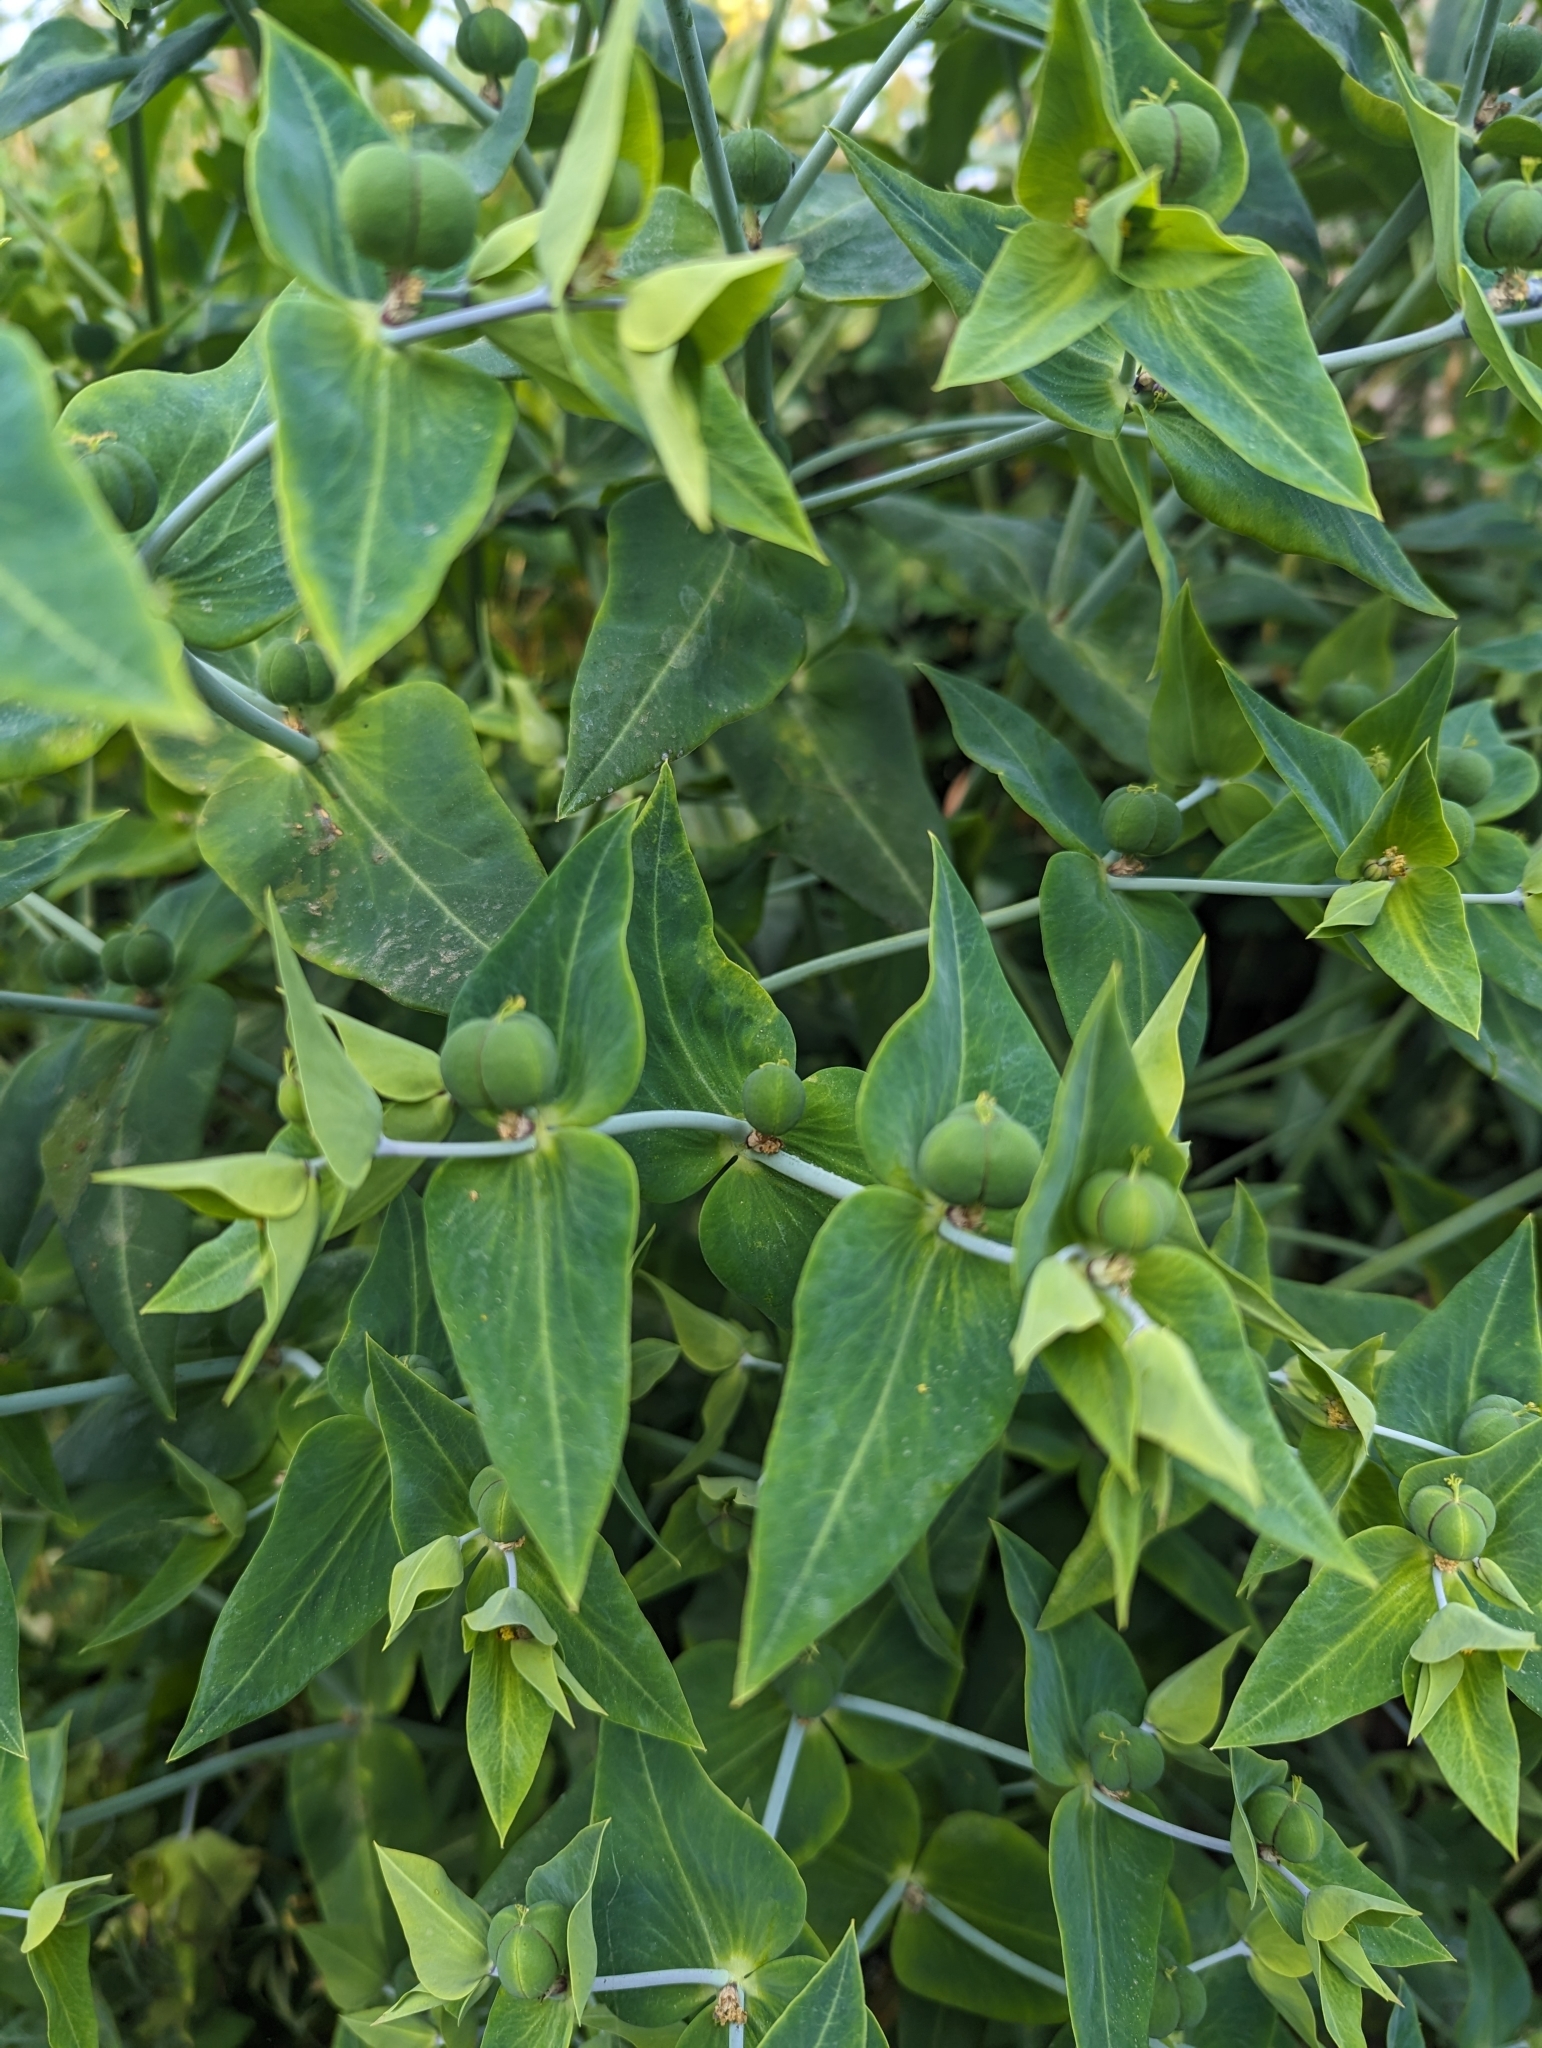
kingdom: Plantae
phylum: Tracheophyta
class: Magnoliopsida
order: Malpighiales
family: Euphorbiaceae
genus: Euphorbia
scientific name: Euphorbia lathyris
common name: Caper spurge
